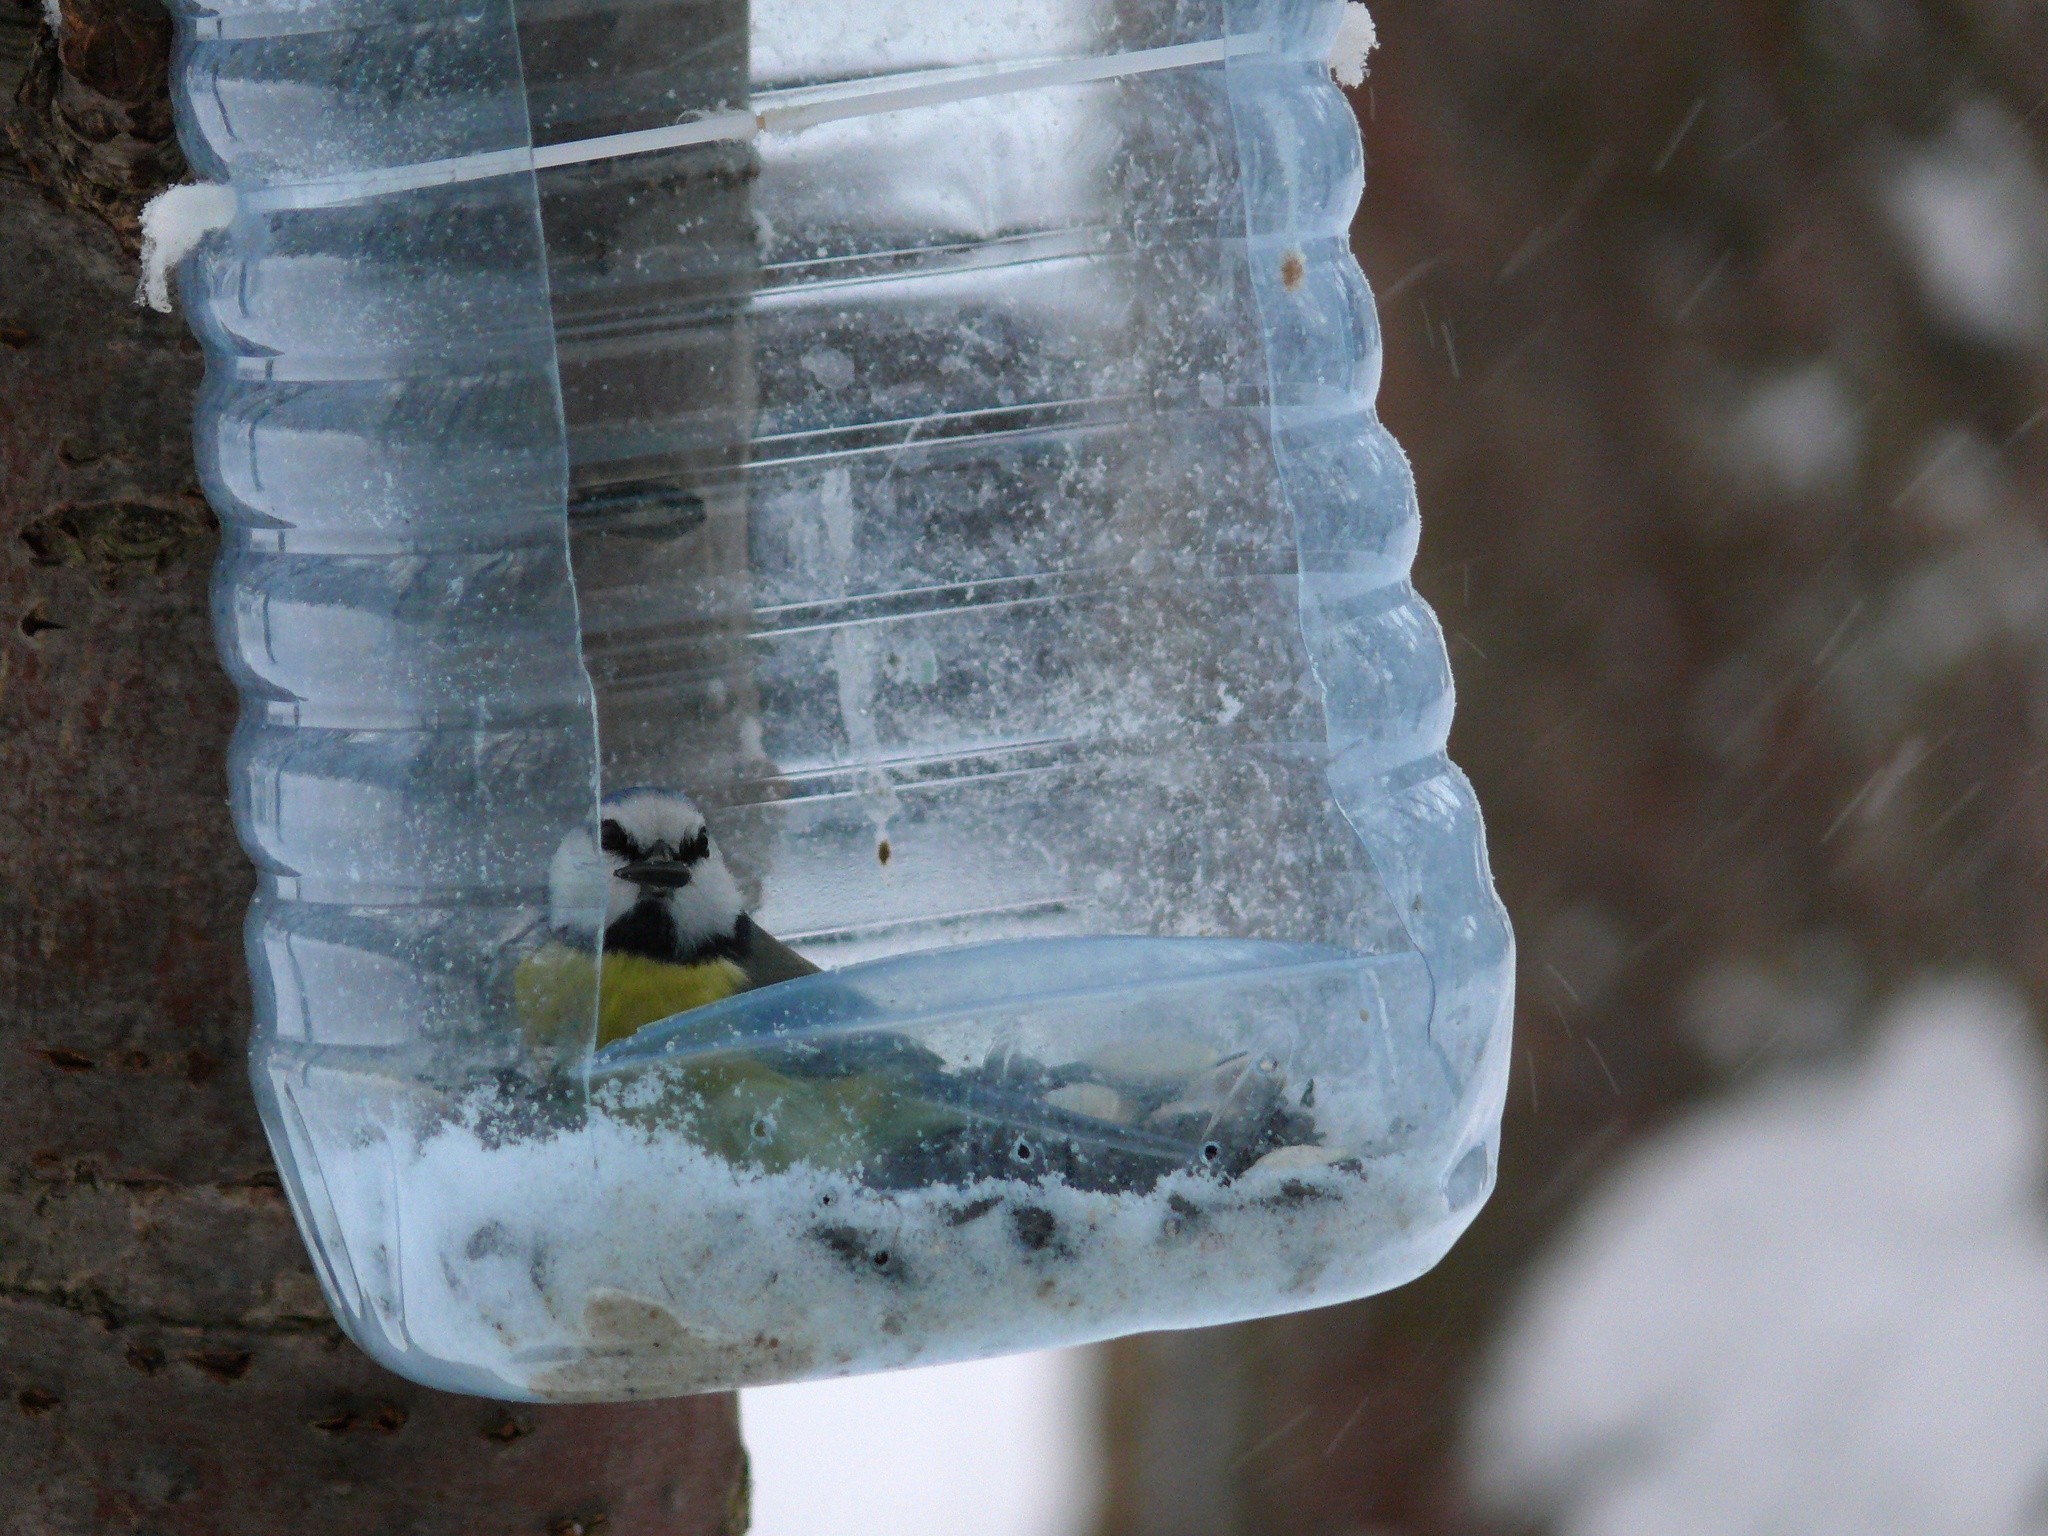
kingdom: Animalia
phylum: Chordata
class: Aves
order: Passeriformes
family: Paridae
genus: Cyanistes
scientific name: Cyanistes caeruleus
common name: Eurasian blue tit
